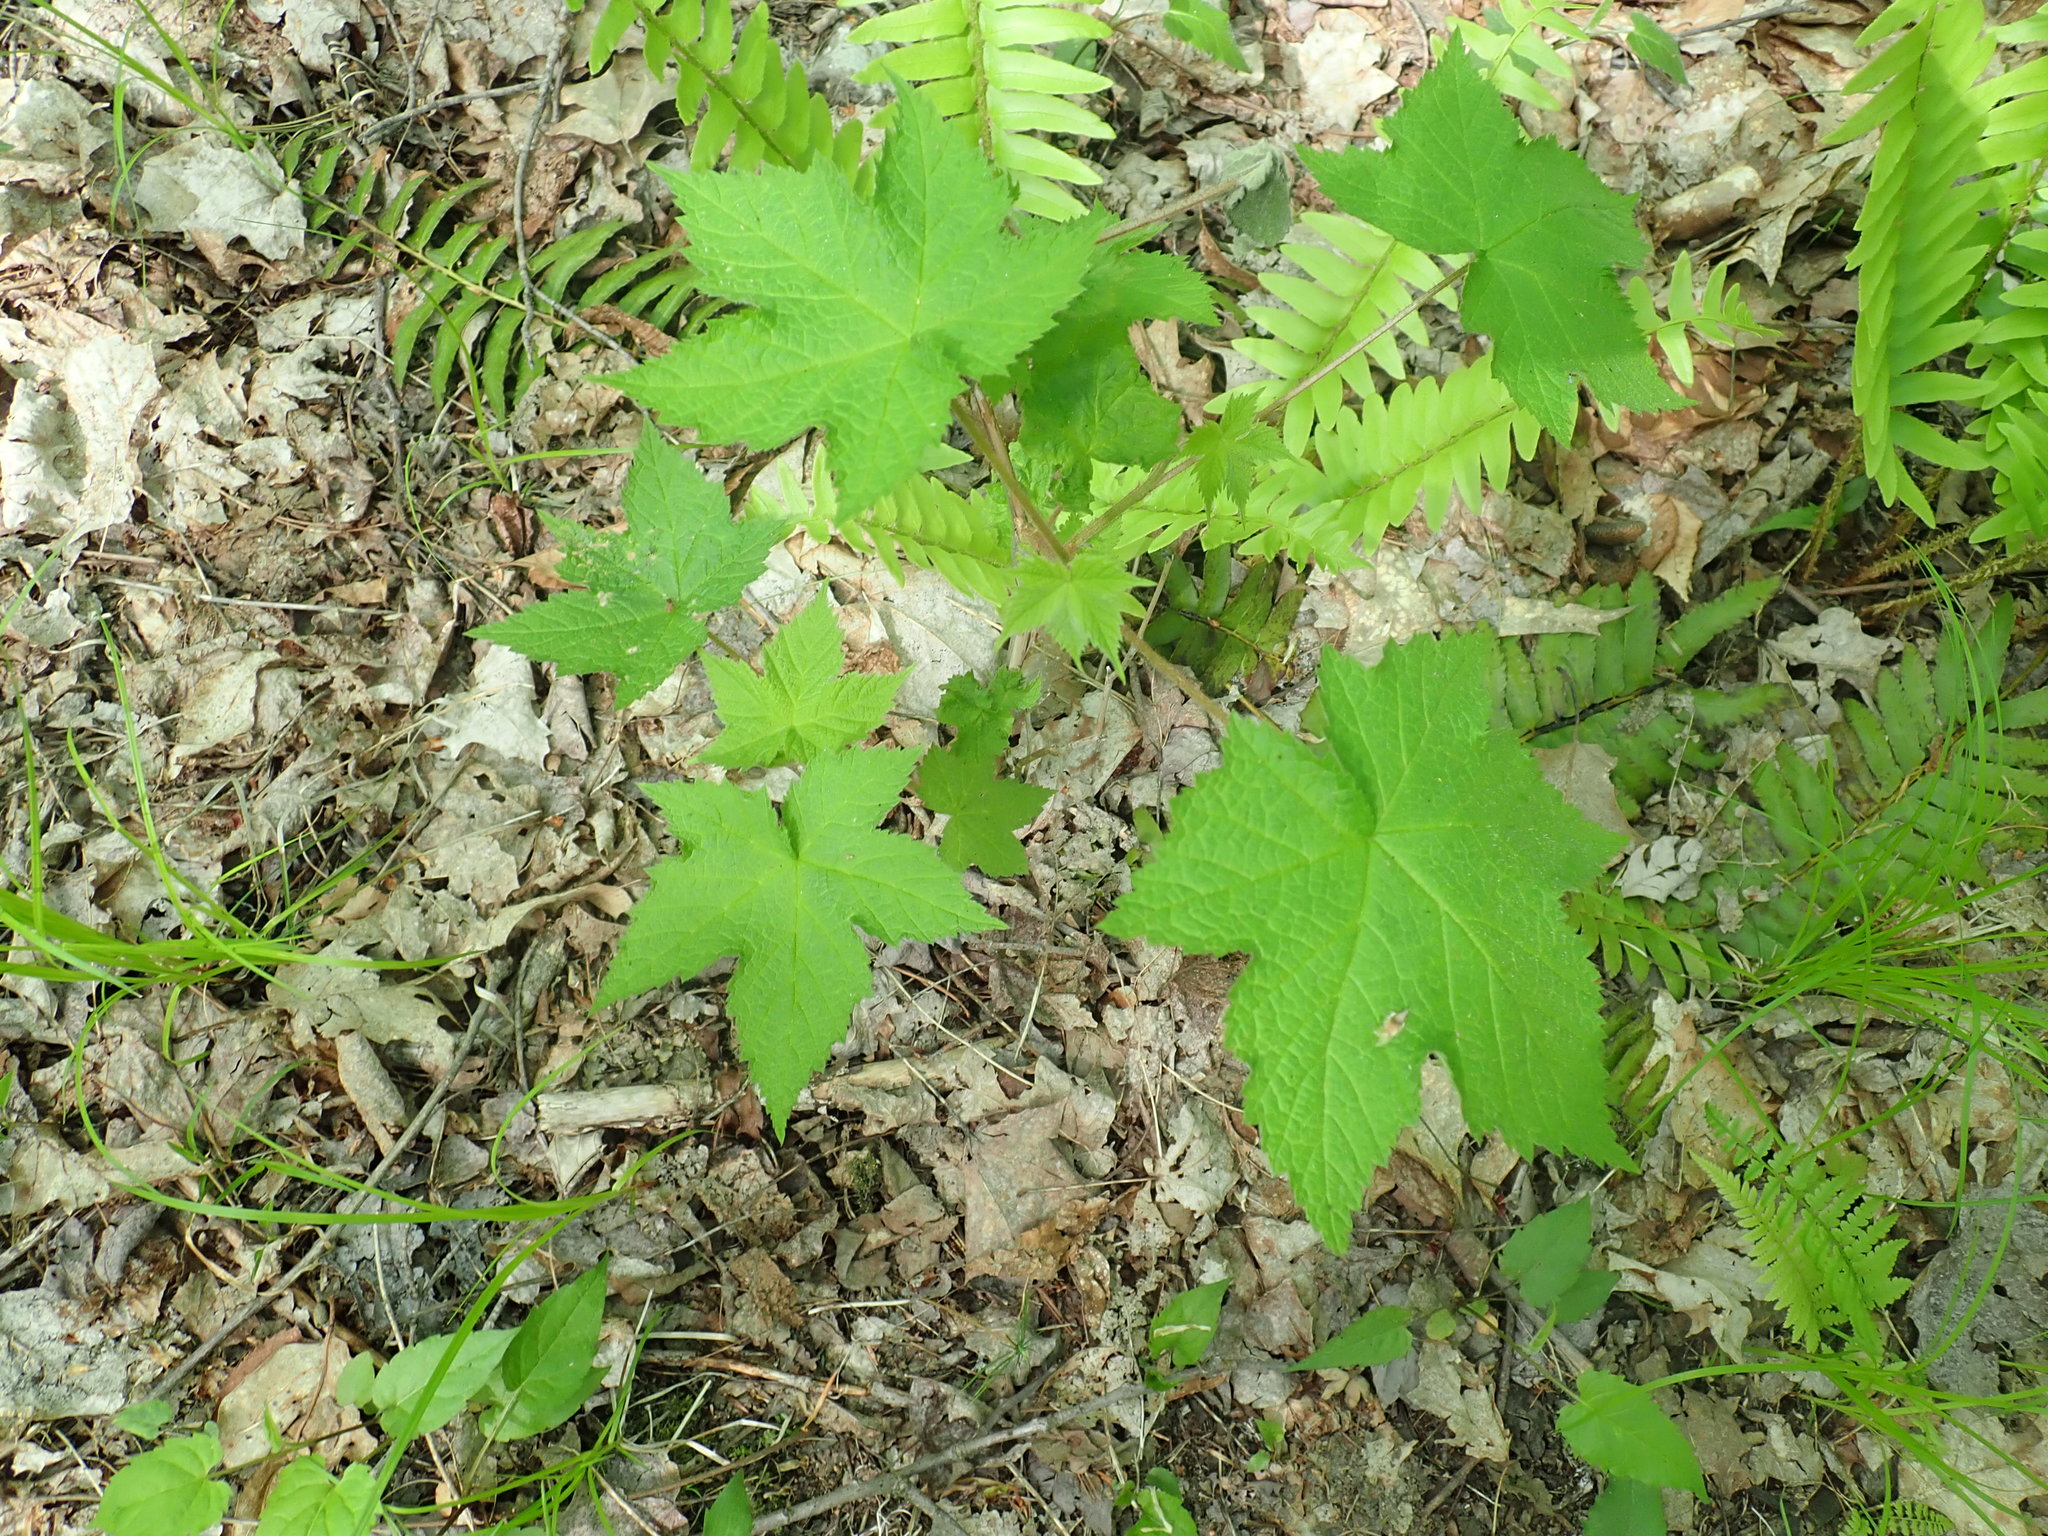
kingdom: Plantae
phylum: Tracheophyta
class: Magnoliopsida
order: Rosales
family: Rosaceae
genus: Rubus
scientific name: Rubus odoratus
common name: Purple-flowered raspberry
